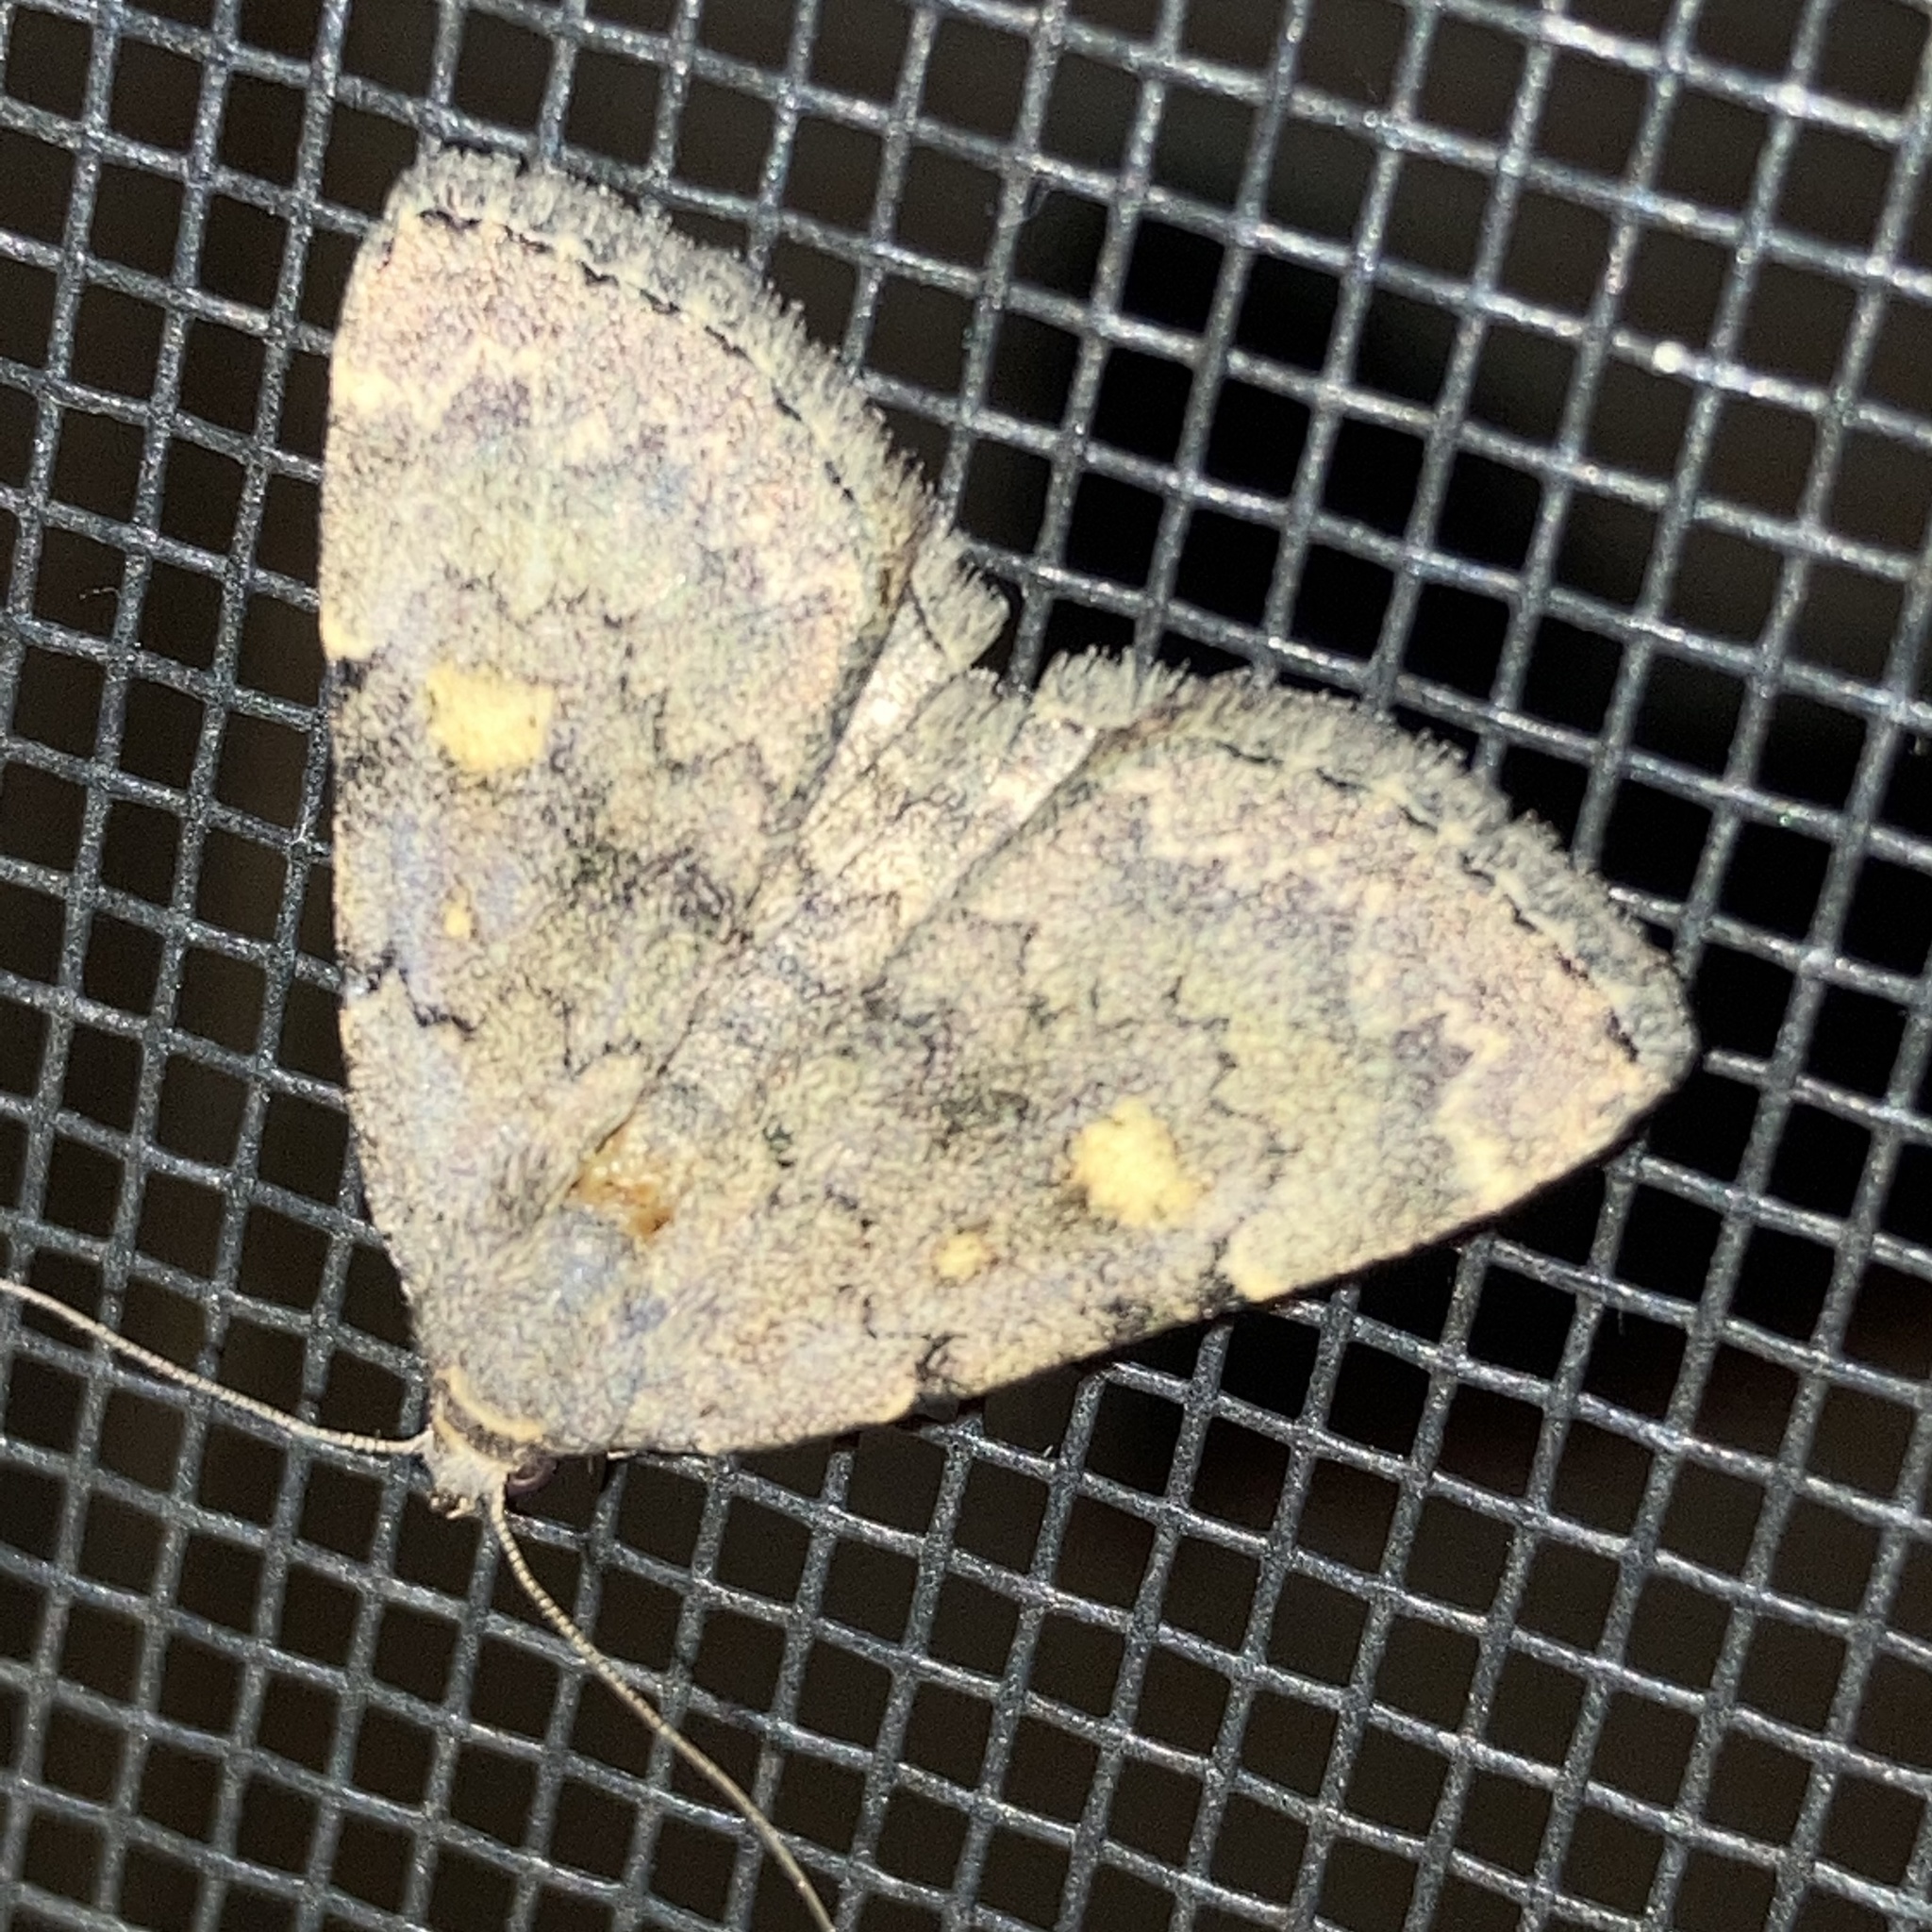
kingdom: Animalia
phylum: Arthropoda
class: Insecta
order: Lepidoptera
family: Erebidae
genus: Idia
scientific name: Idia aemula
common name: Common idia moth
